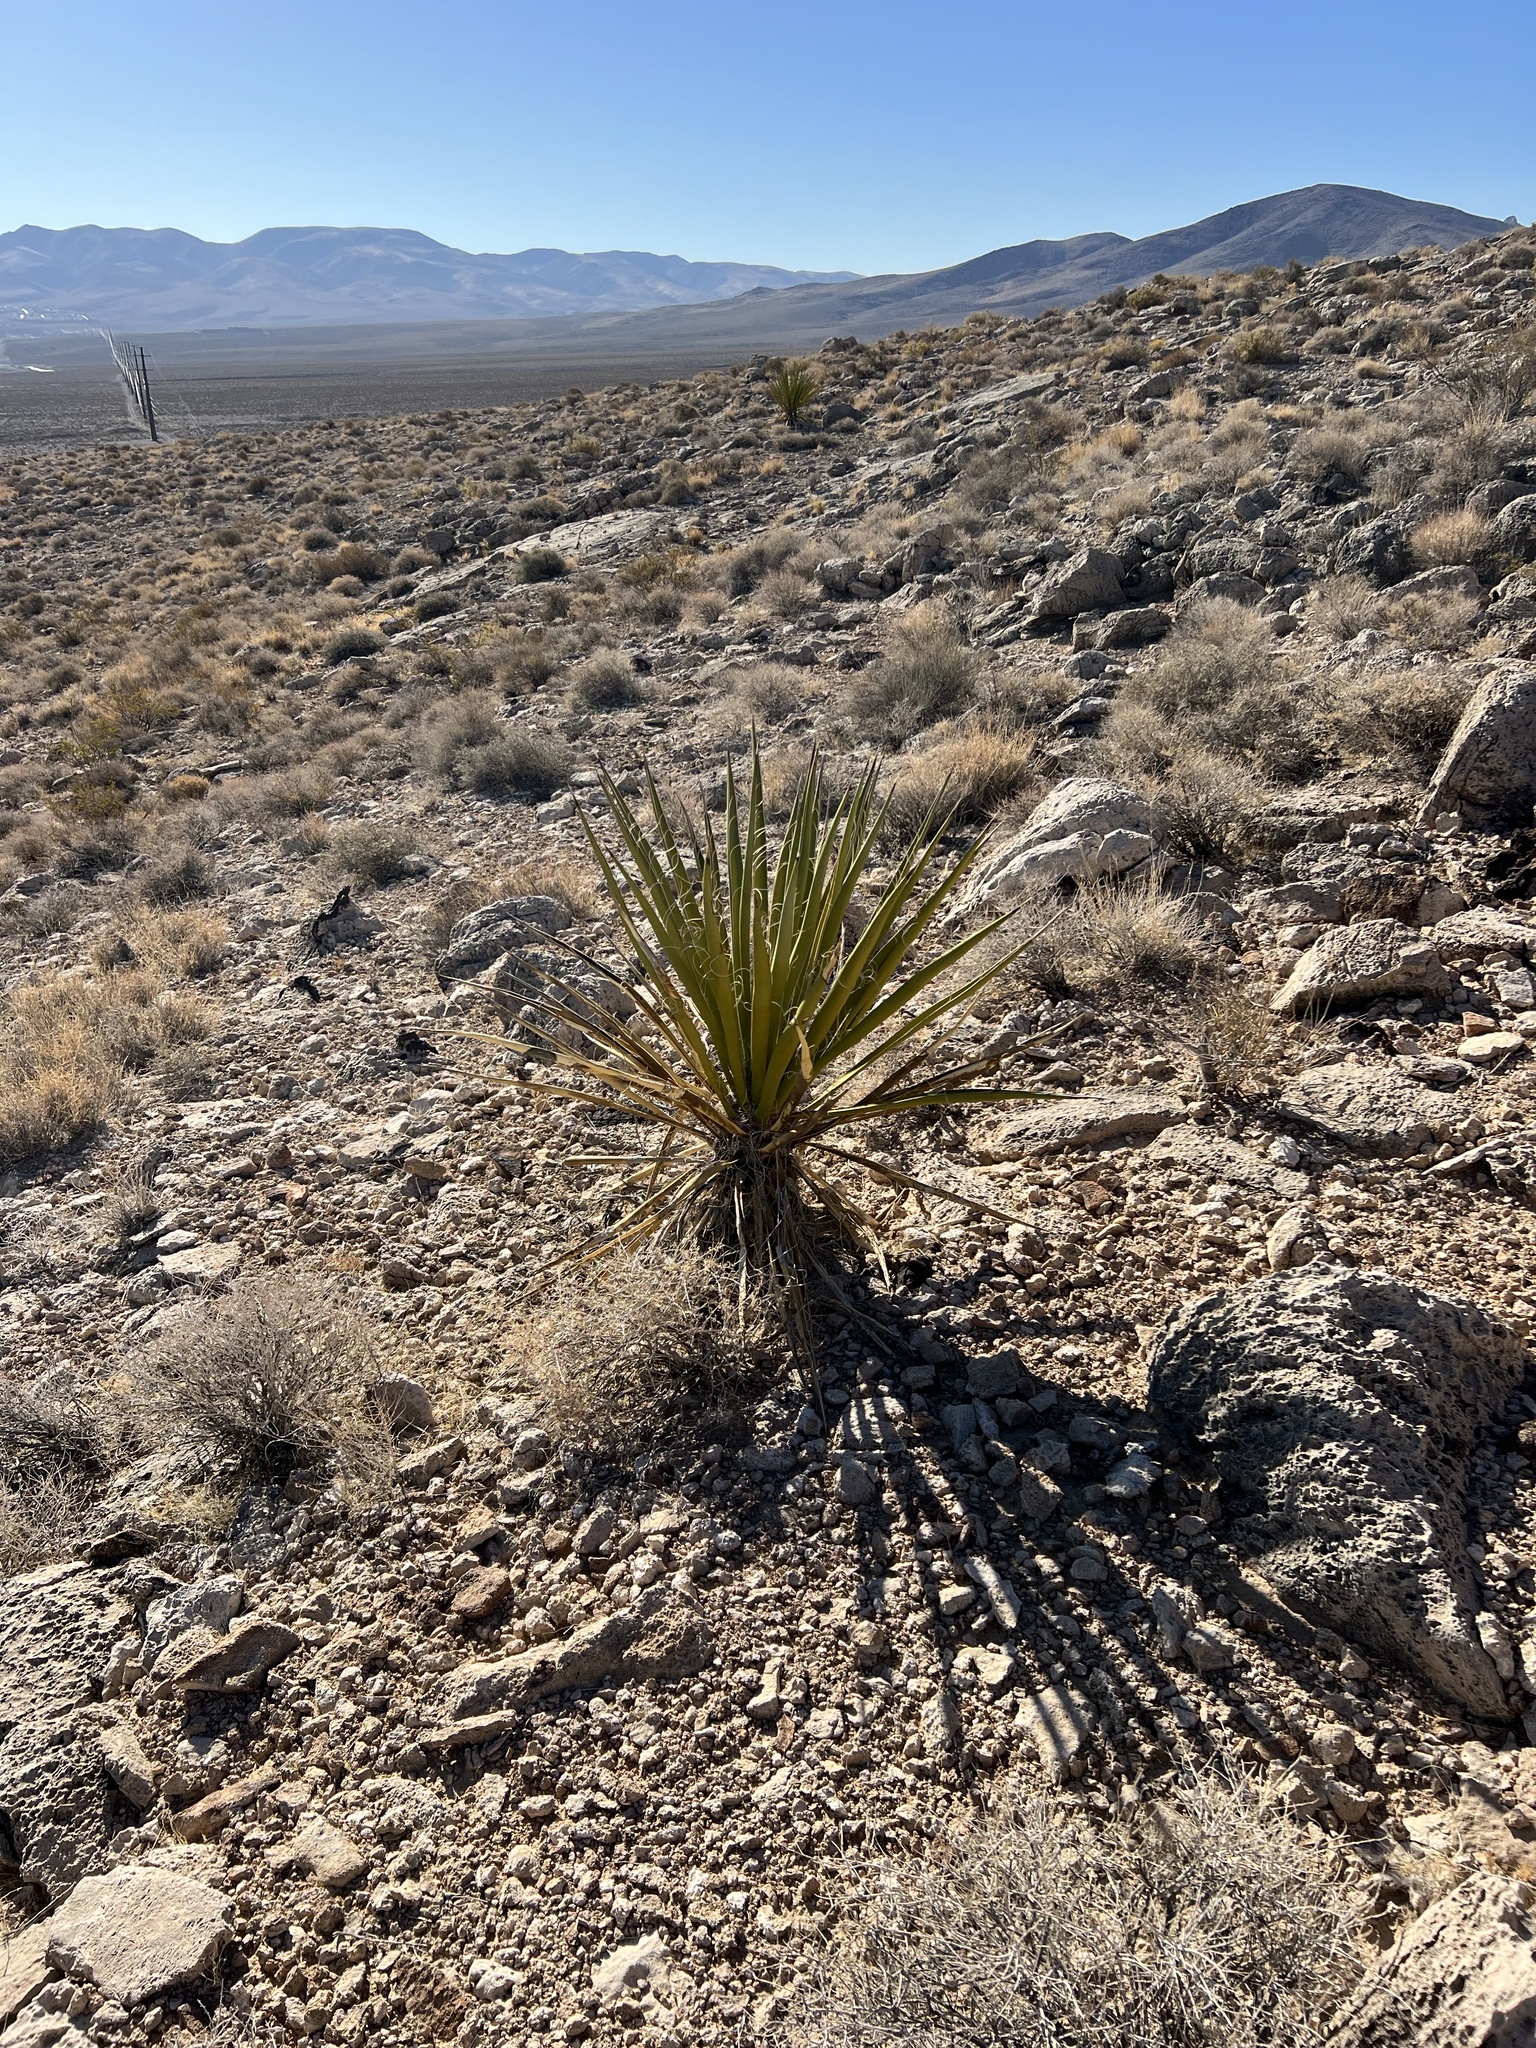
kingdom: Plantae
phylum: Tracheophyta
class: Liliopsida
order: Asparagales
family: Asparagaceae
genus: Yucca
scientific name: Yucca schidigera
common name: Mojave yucca
